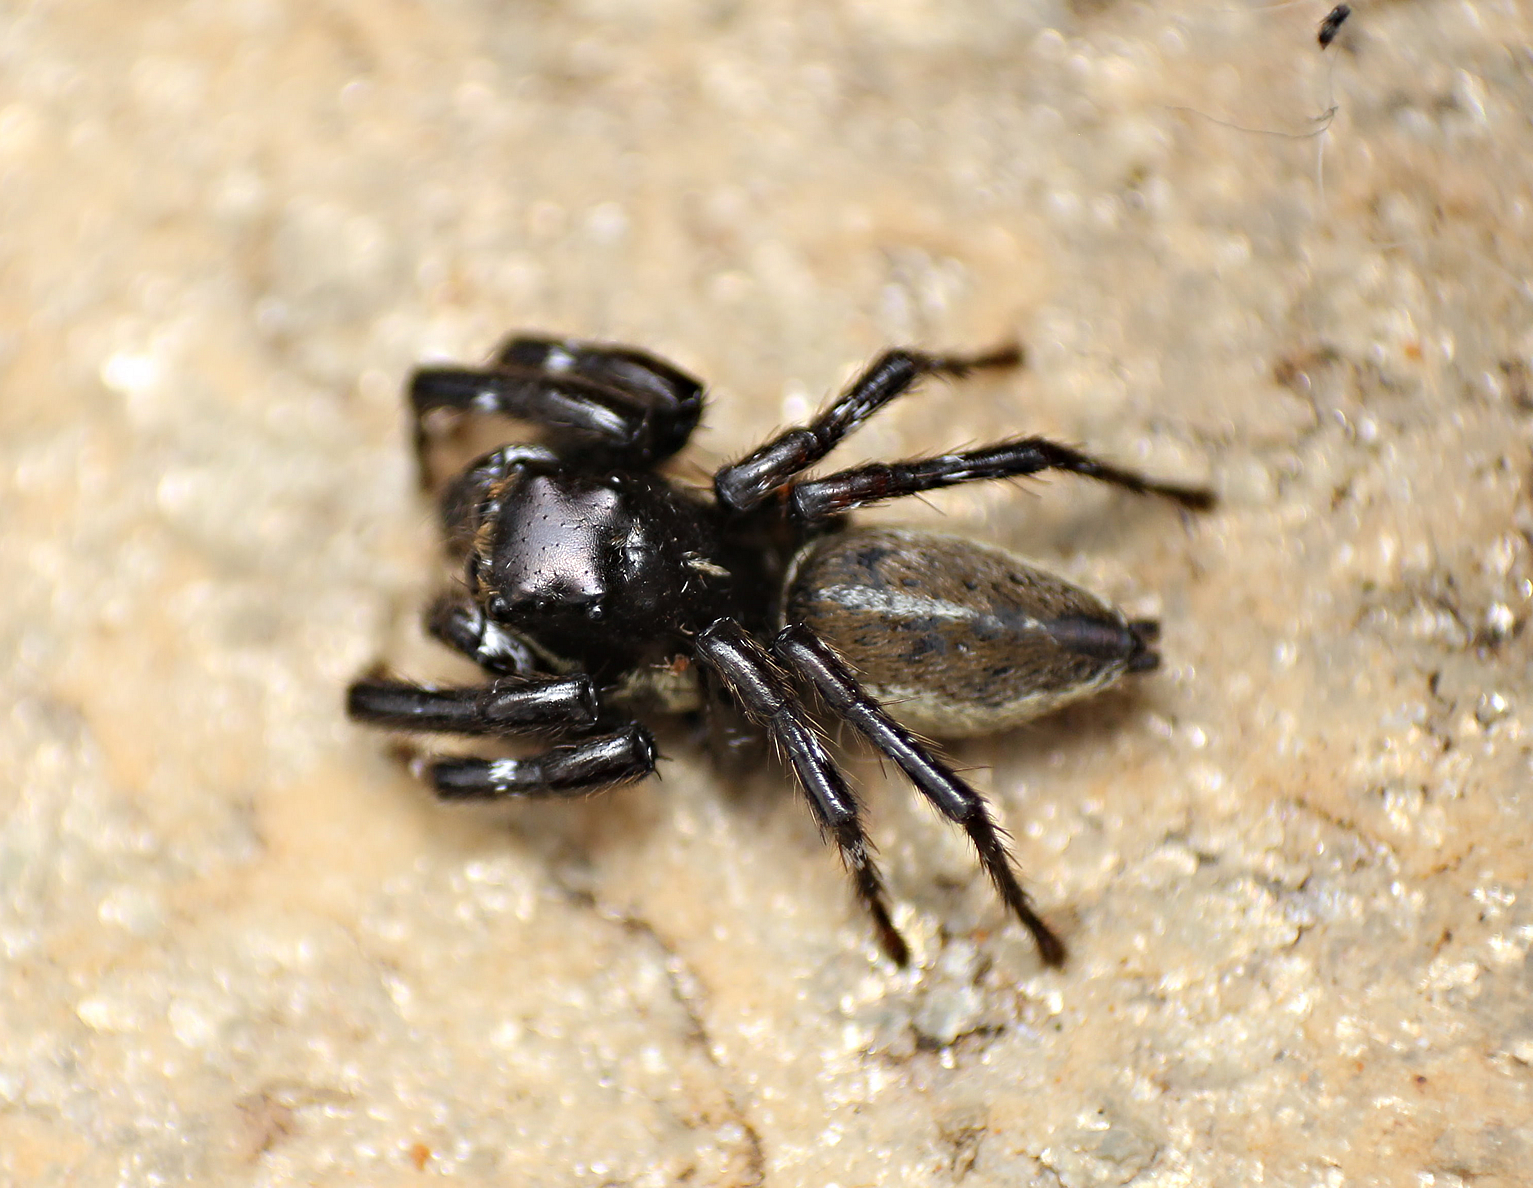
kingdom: Animalia
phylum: Arthropoda
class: Arachnida
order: Araneae
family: Salticidae
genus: Phiale
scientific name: Phiale tristis
